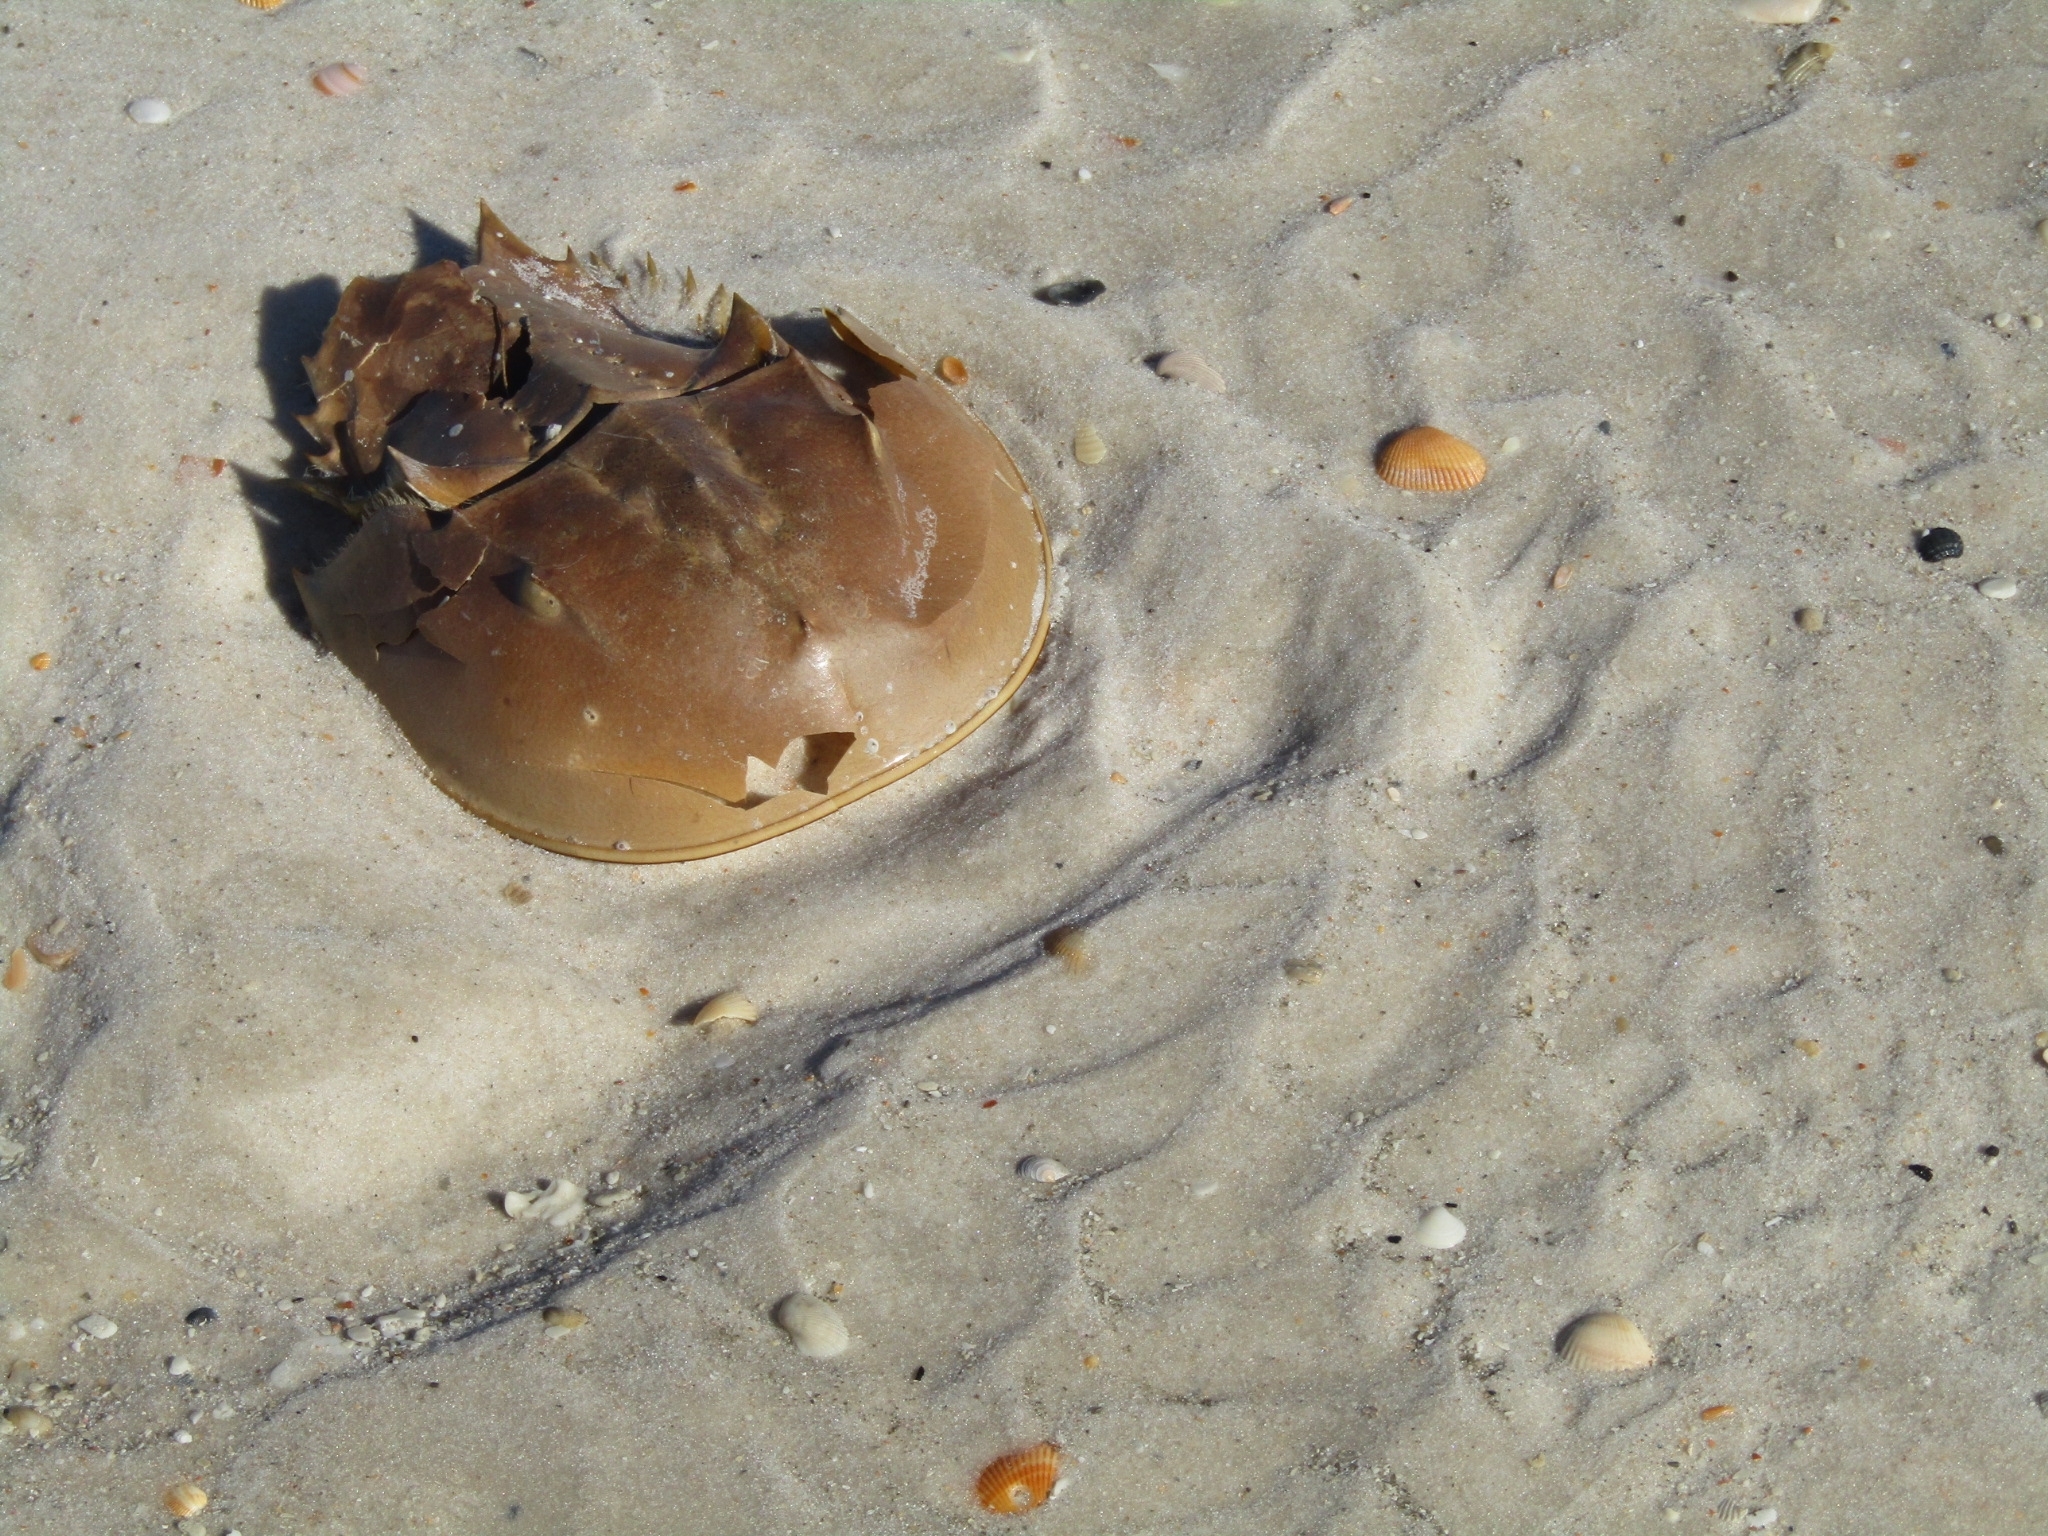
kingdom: Animalia
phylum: Arthropoda
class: Merostomata
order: Xiphosurida
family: Limulidae
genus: Limulus
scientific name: Limulus polyphemus
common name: Horseshoe crab
